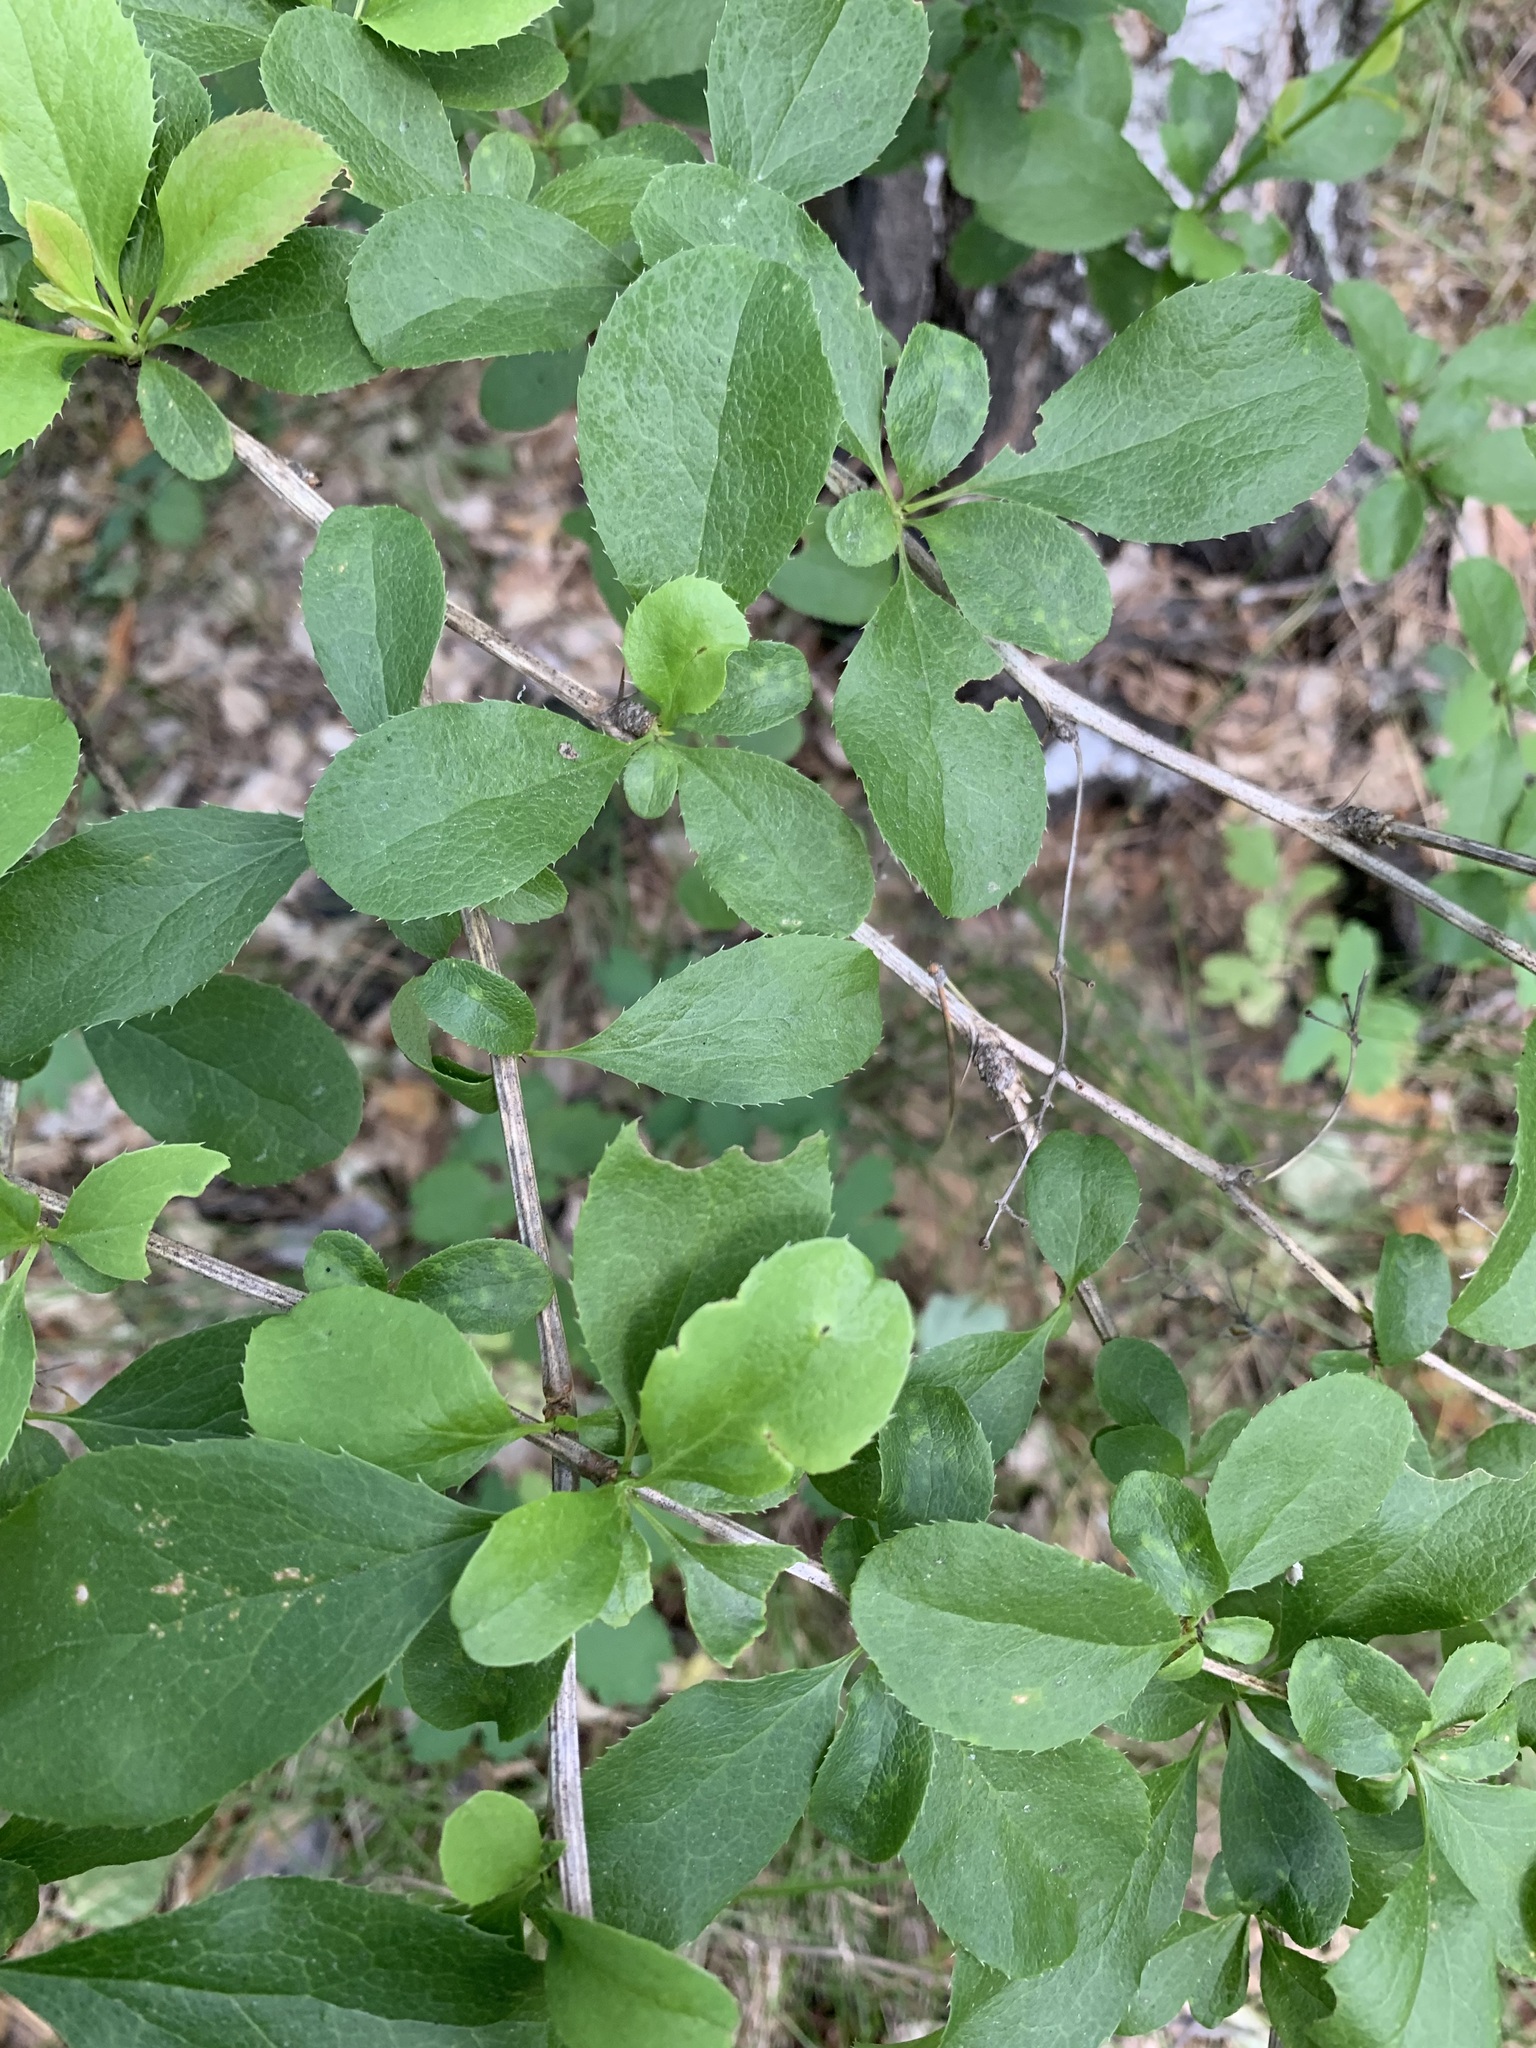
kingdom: Plantae
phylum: Tracheophyta
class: Magnoliopsida
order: Ranunculales
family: Berberidaceae
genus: Berberis
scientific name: Berberis vulgaris
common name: Barberry
